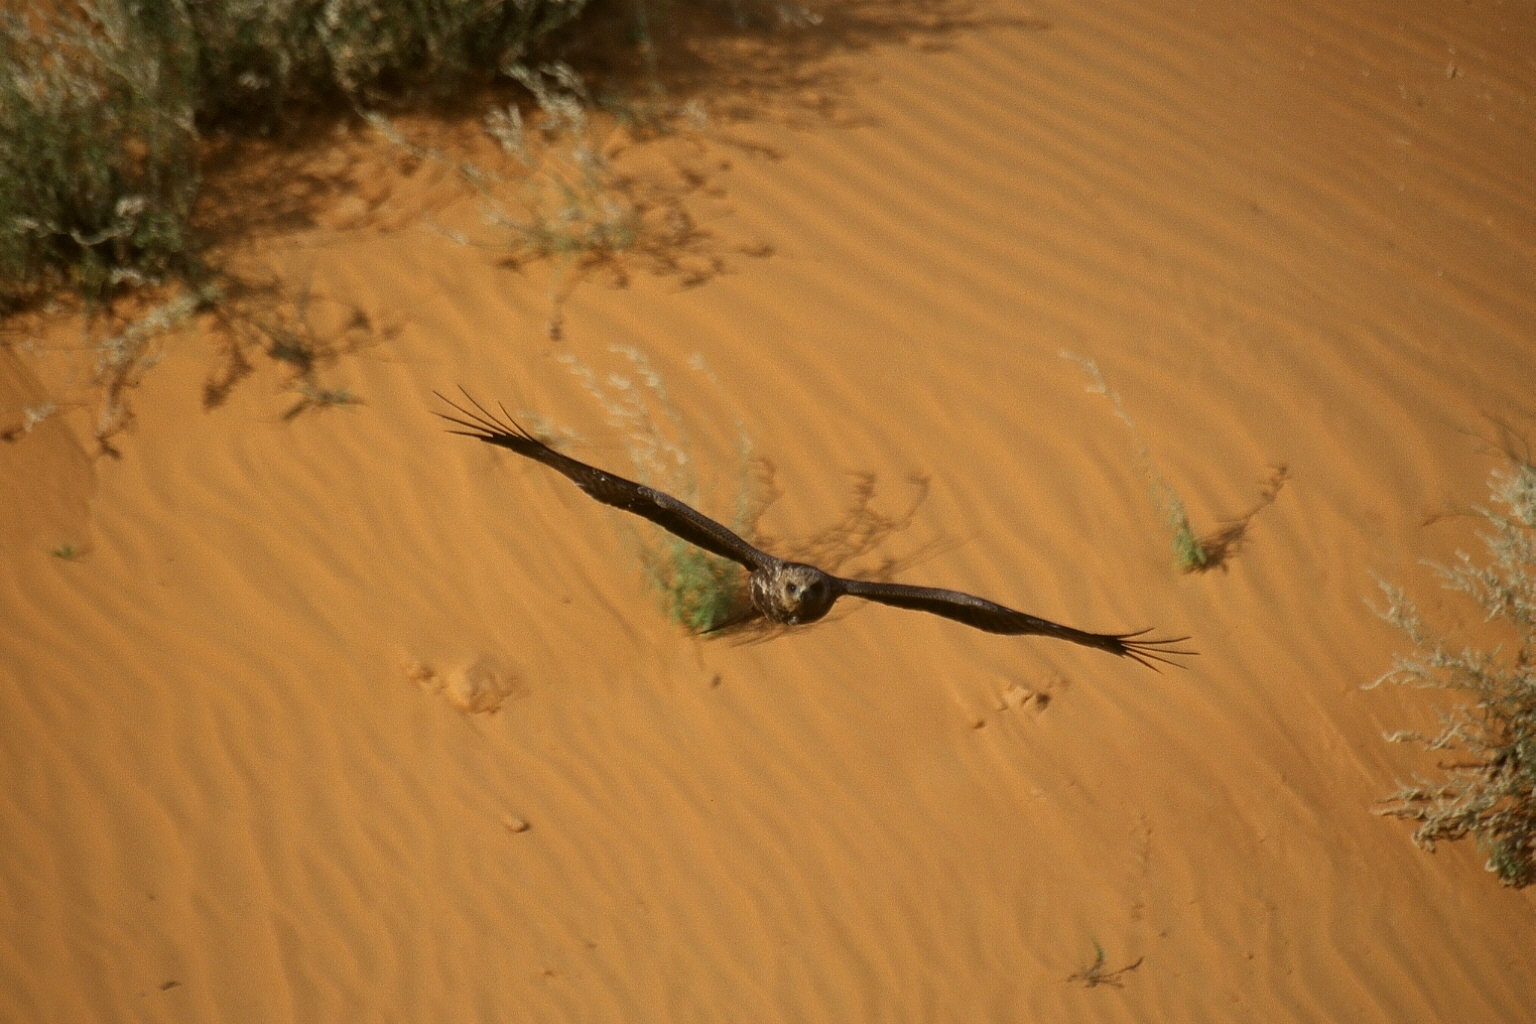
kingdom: Animalia
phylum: Chordata
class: Aves
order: Accipitriformes
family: Accipitridae
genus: Milvus
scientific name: Milvus migrans
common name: Black kite
